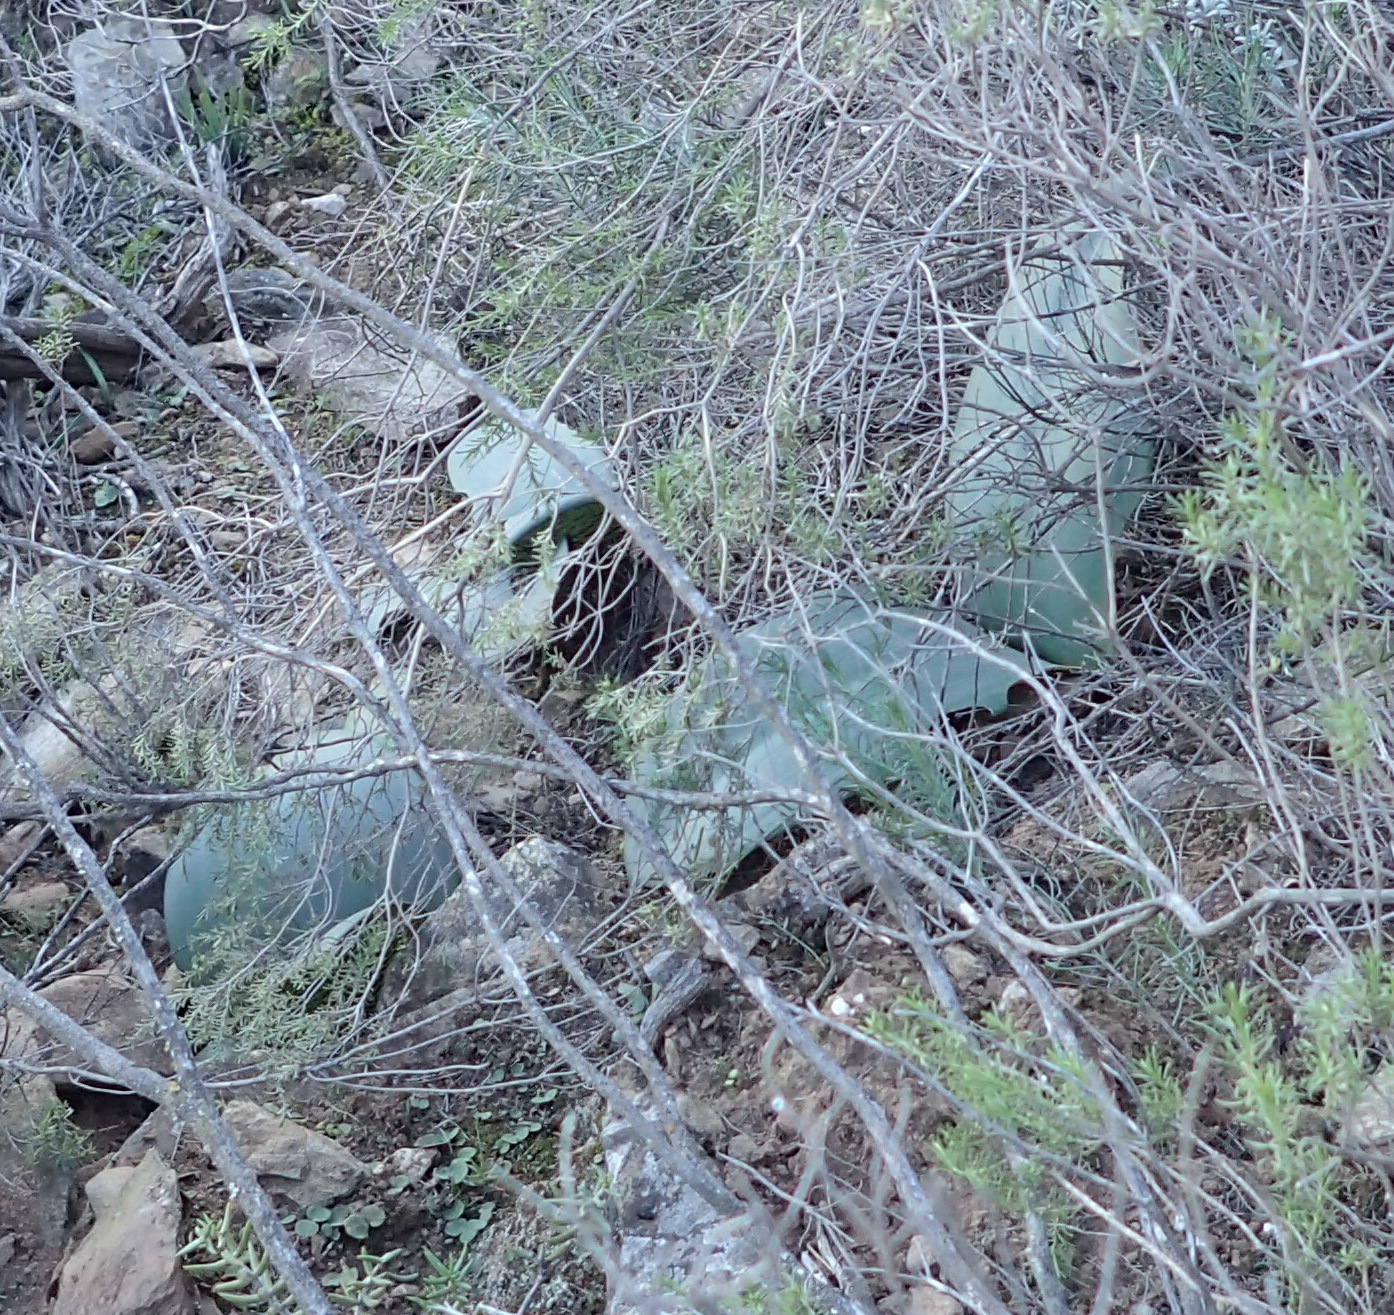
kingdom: Plantae
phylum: Tracheophyta
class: Liliopsida
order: Asparagales
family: Amaryllidaceae
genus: Haemanthus
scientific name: Haemanthus coccineus
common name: Cape-tulip
